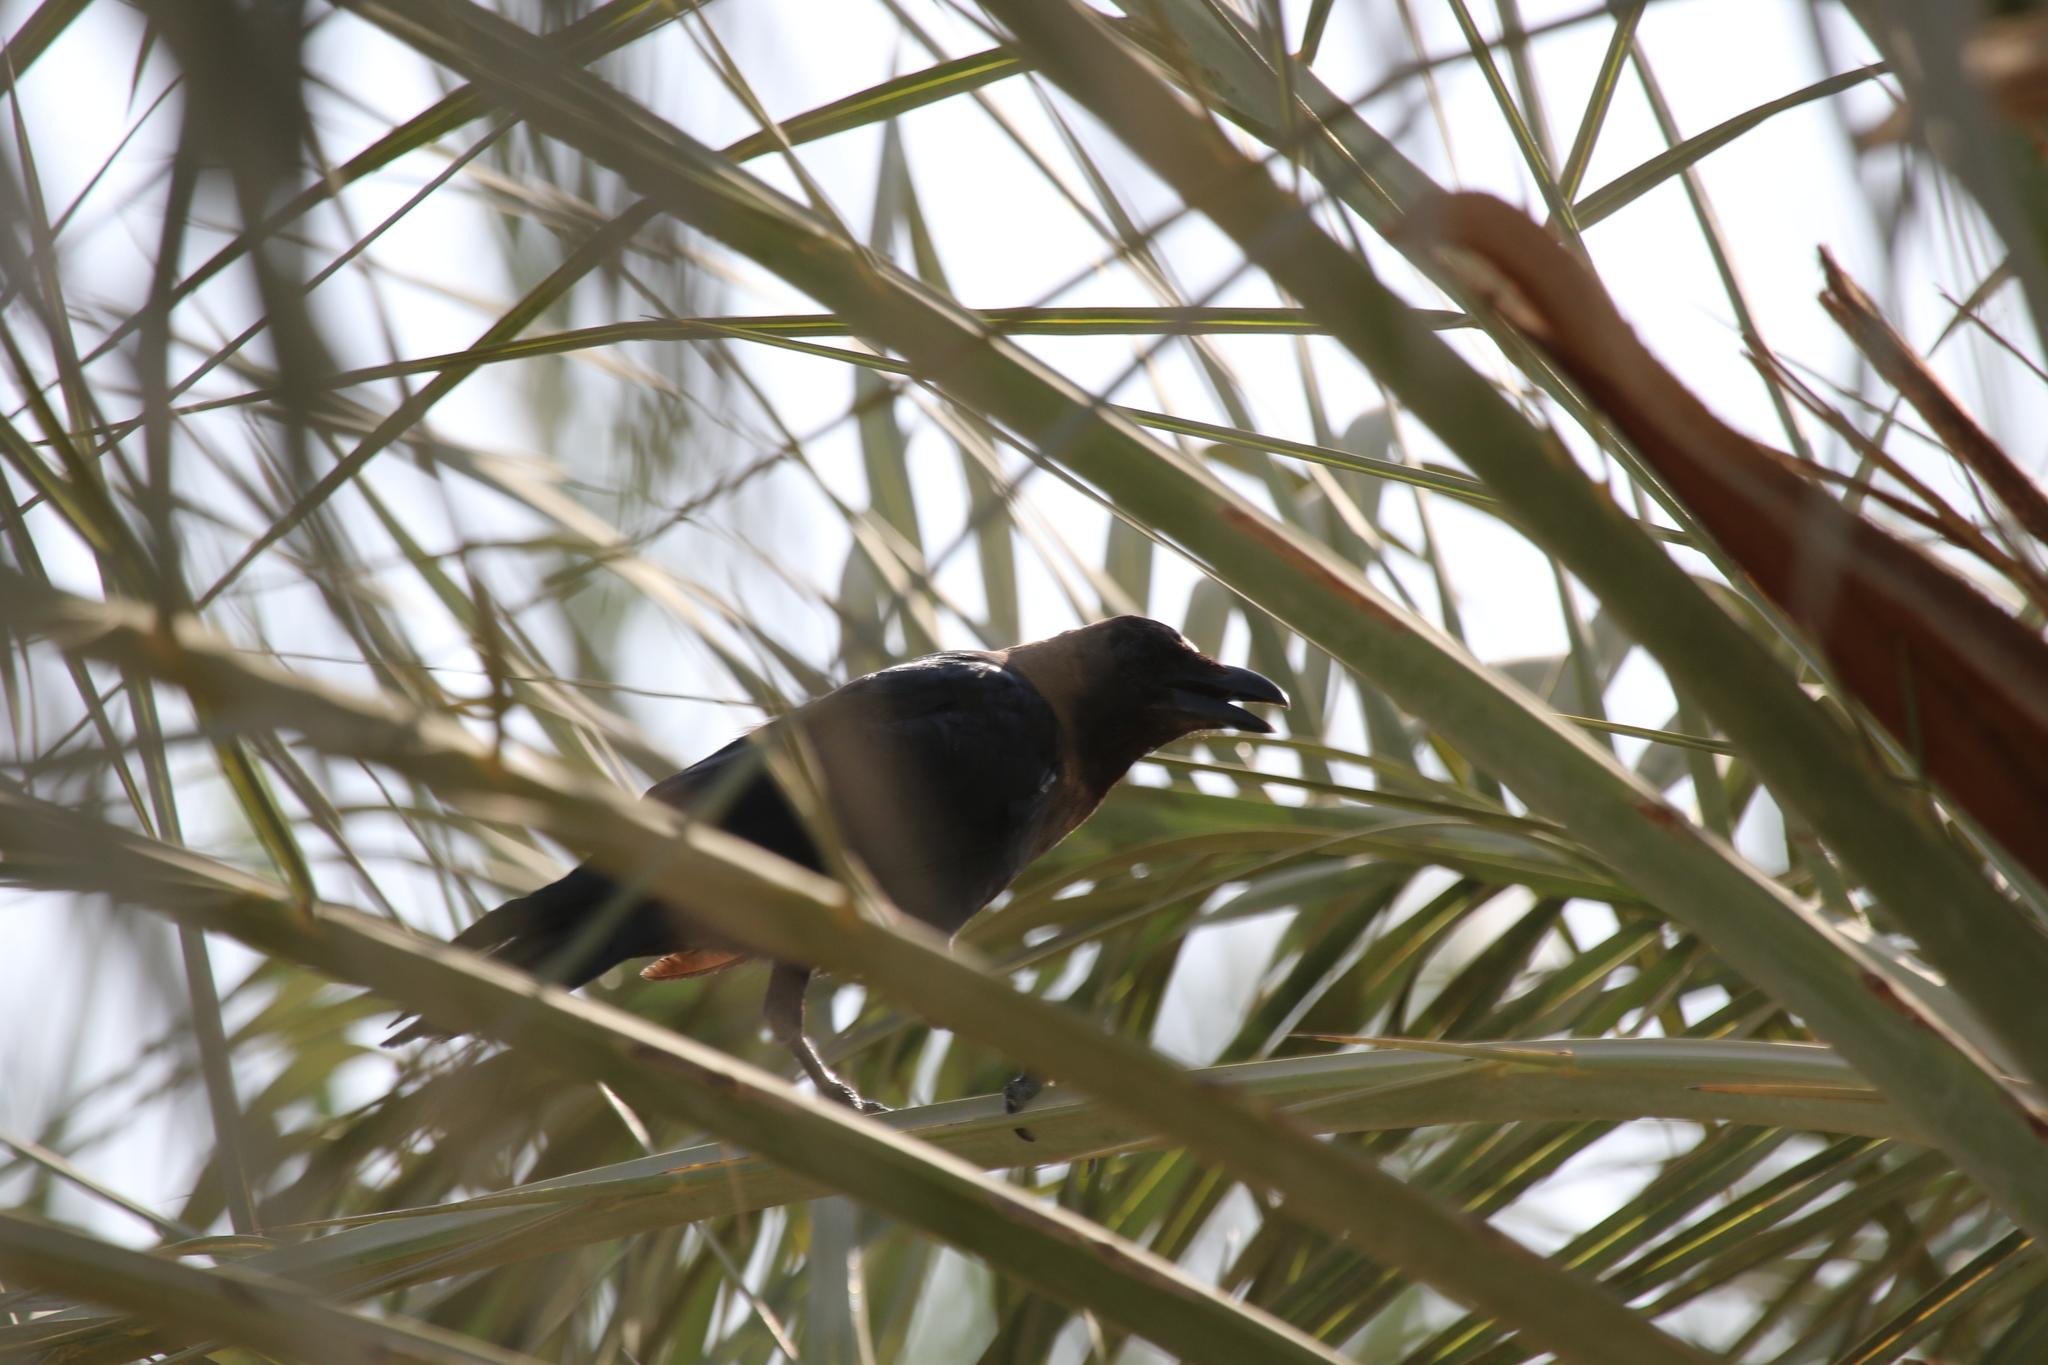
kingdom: Animalia
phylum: Chordata
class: Aves
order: Passeriformes
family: Corvidae
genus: Corvus
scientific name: Corvus splendens
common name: House crow
